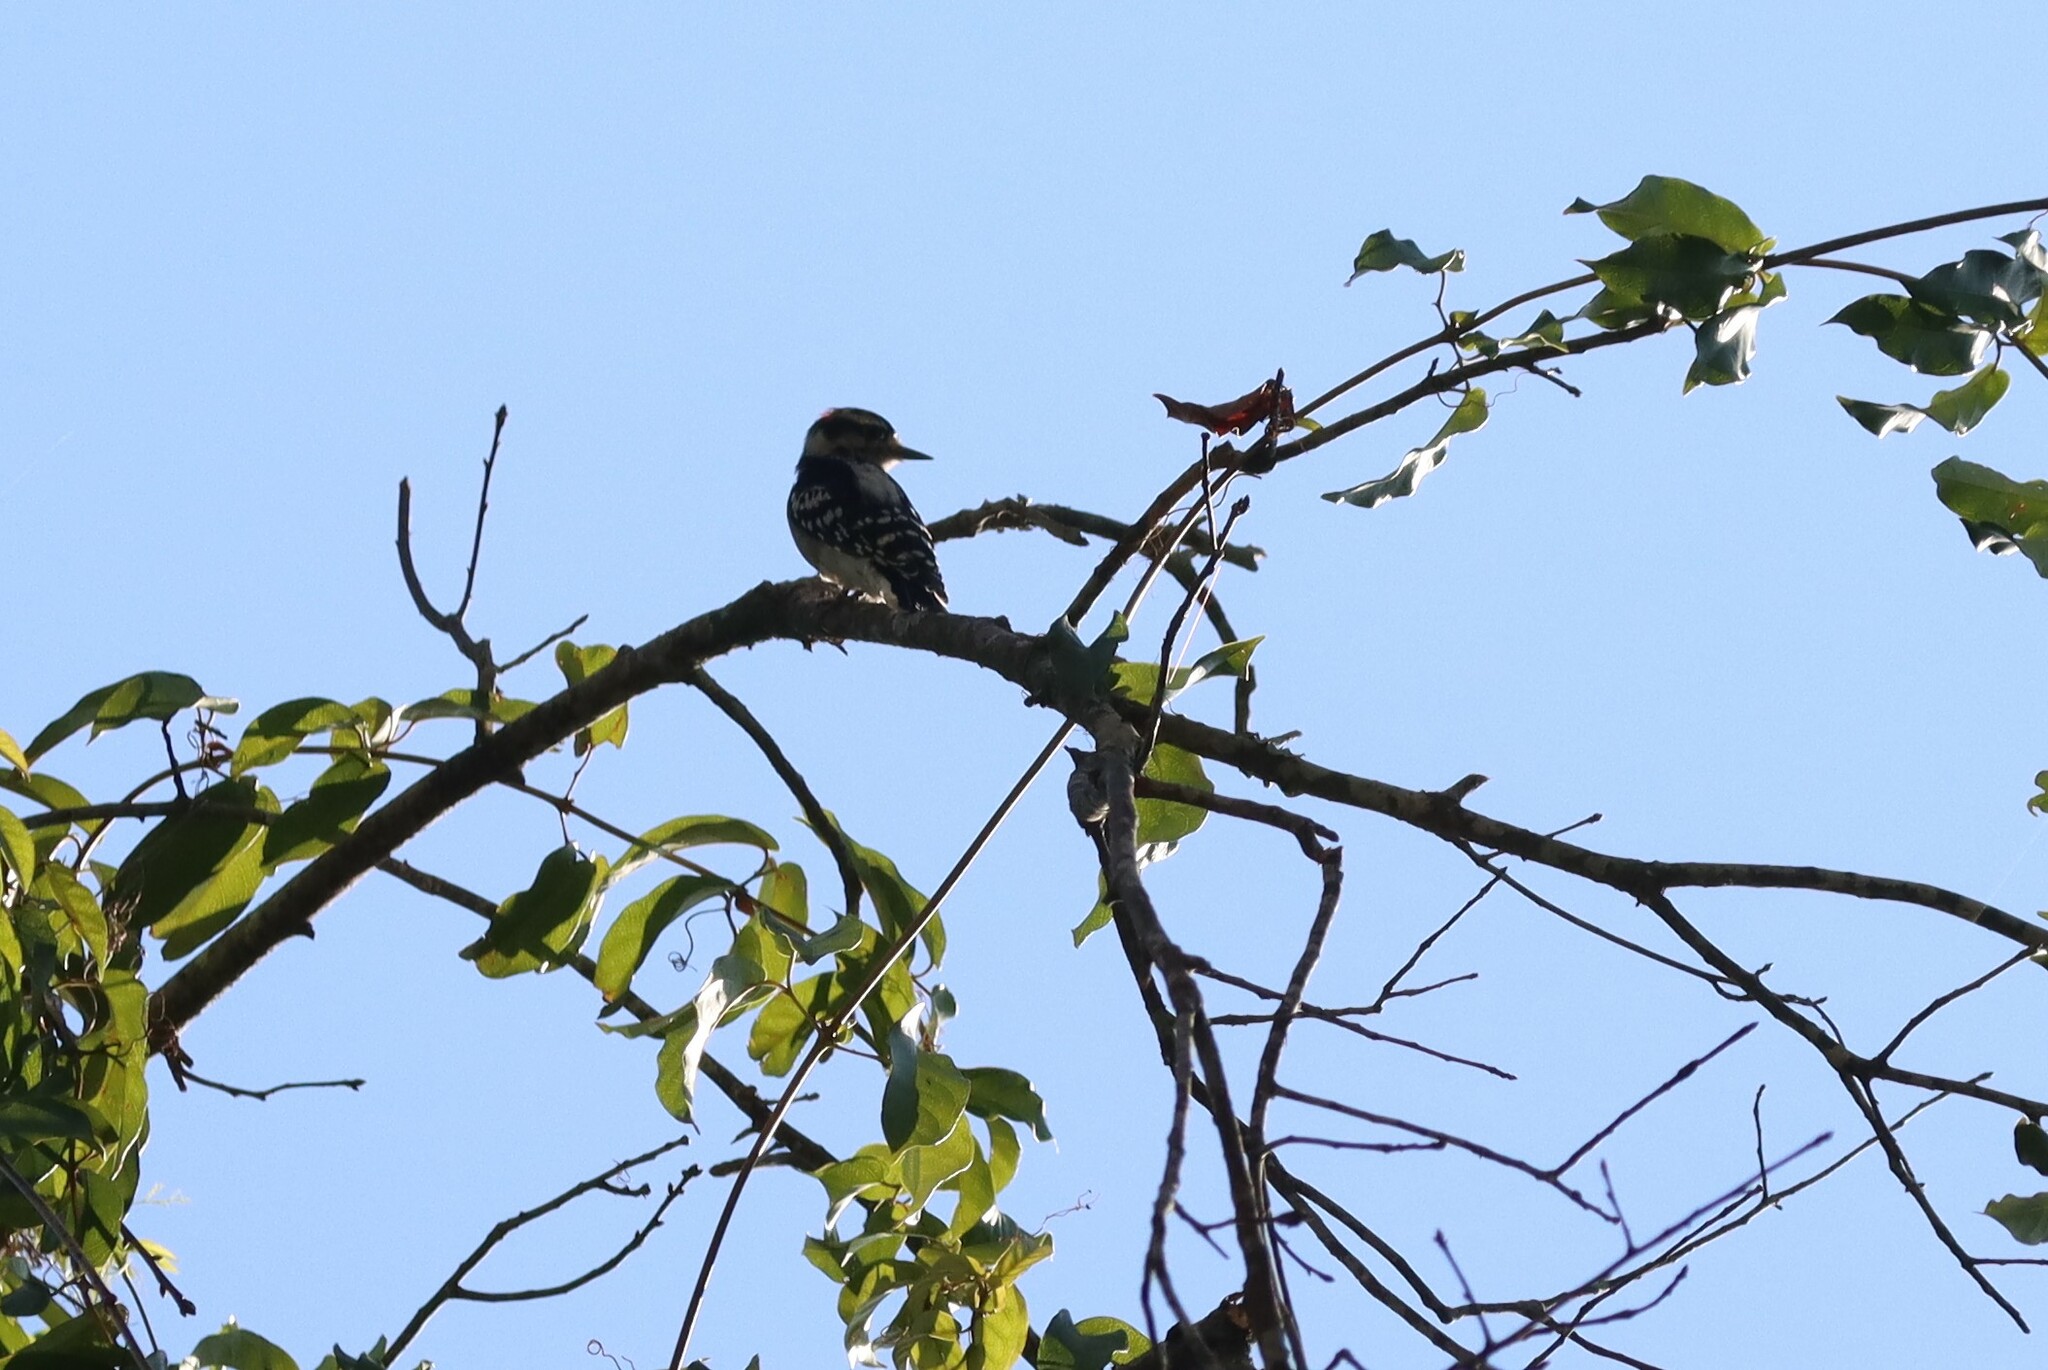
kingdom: Animalia
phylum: Chordata
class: Aves
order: Piciformes
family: Picidae
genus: Dryobates
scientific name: Dryobates pubescens
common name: Downy woodpecker
